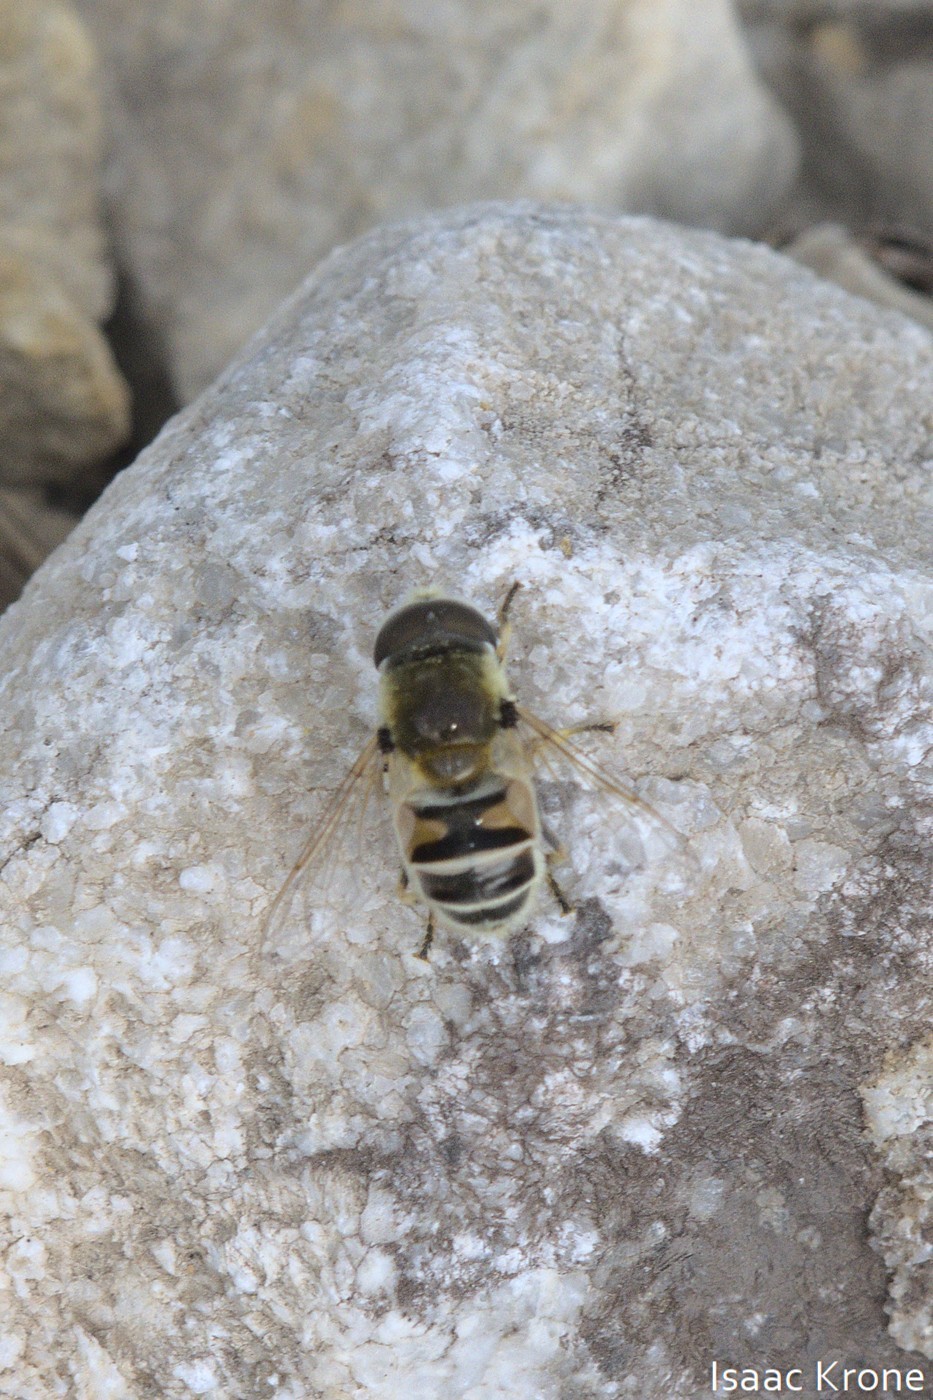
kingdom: Animalia
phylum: Arthropoda
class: Insecta
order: Diptera
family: Syrphidae
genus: Eristalis
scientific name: Eristalis stipator
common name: Yellow-shouldered drone fly
